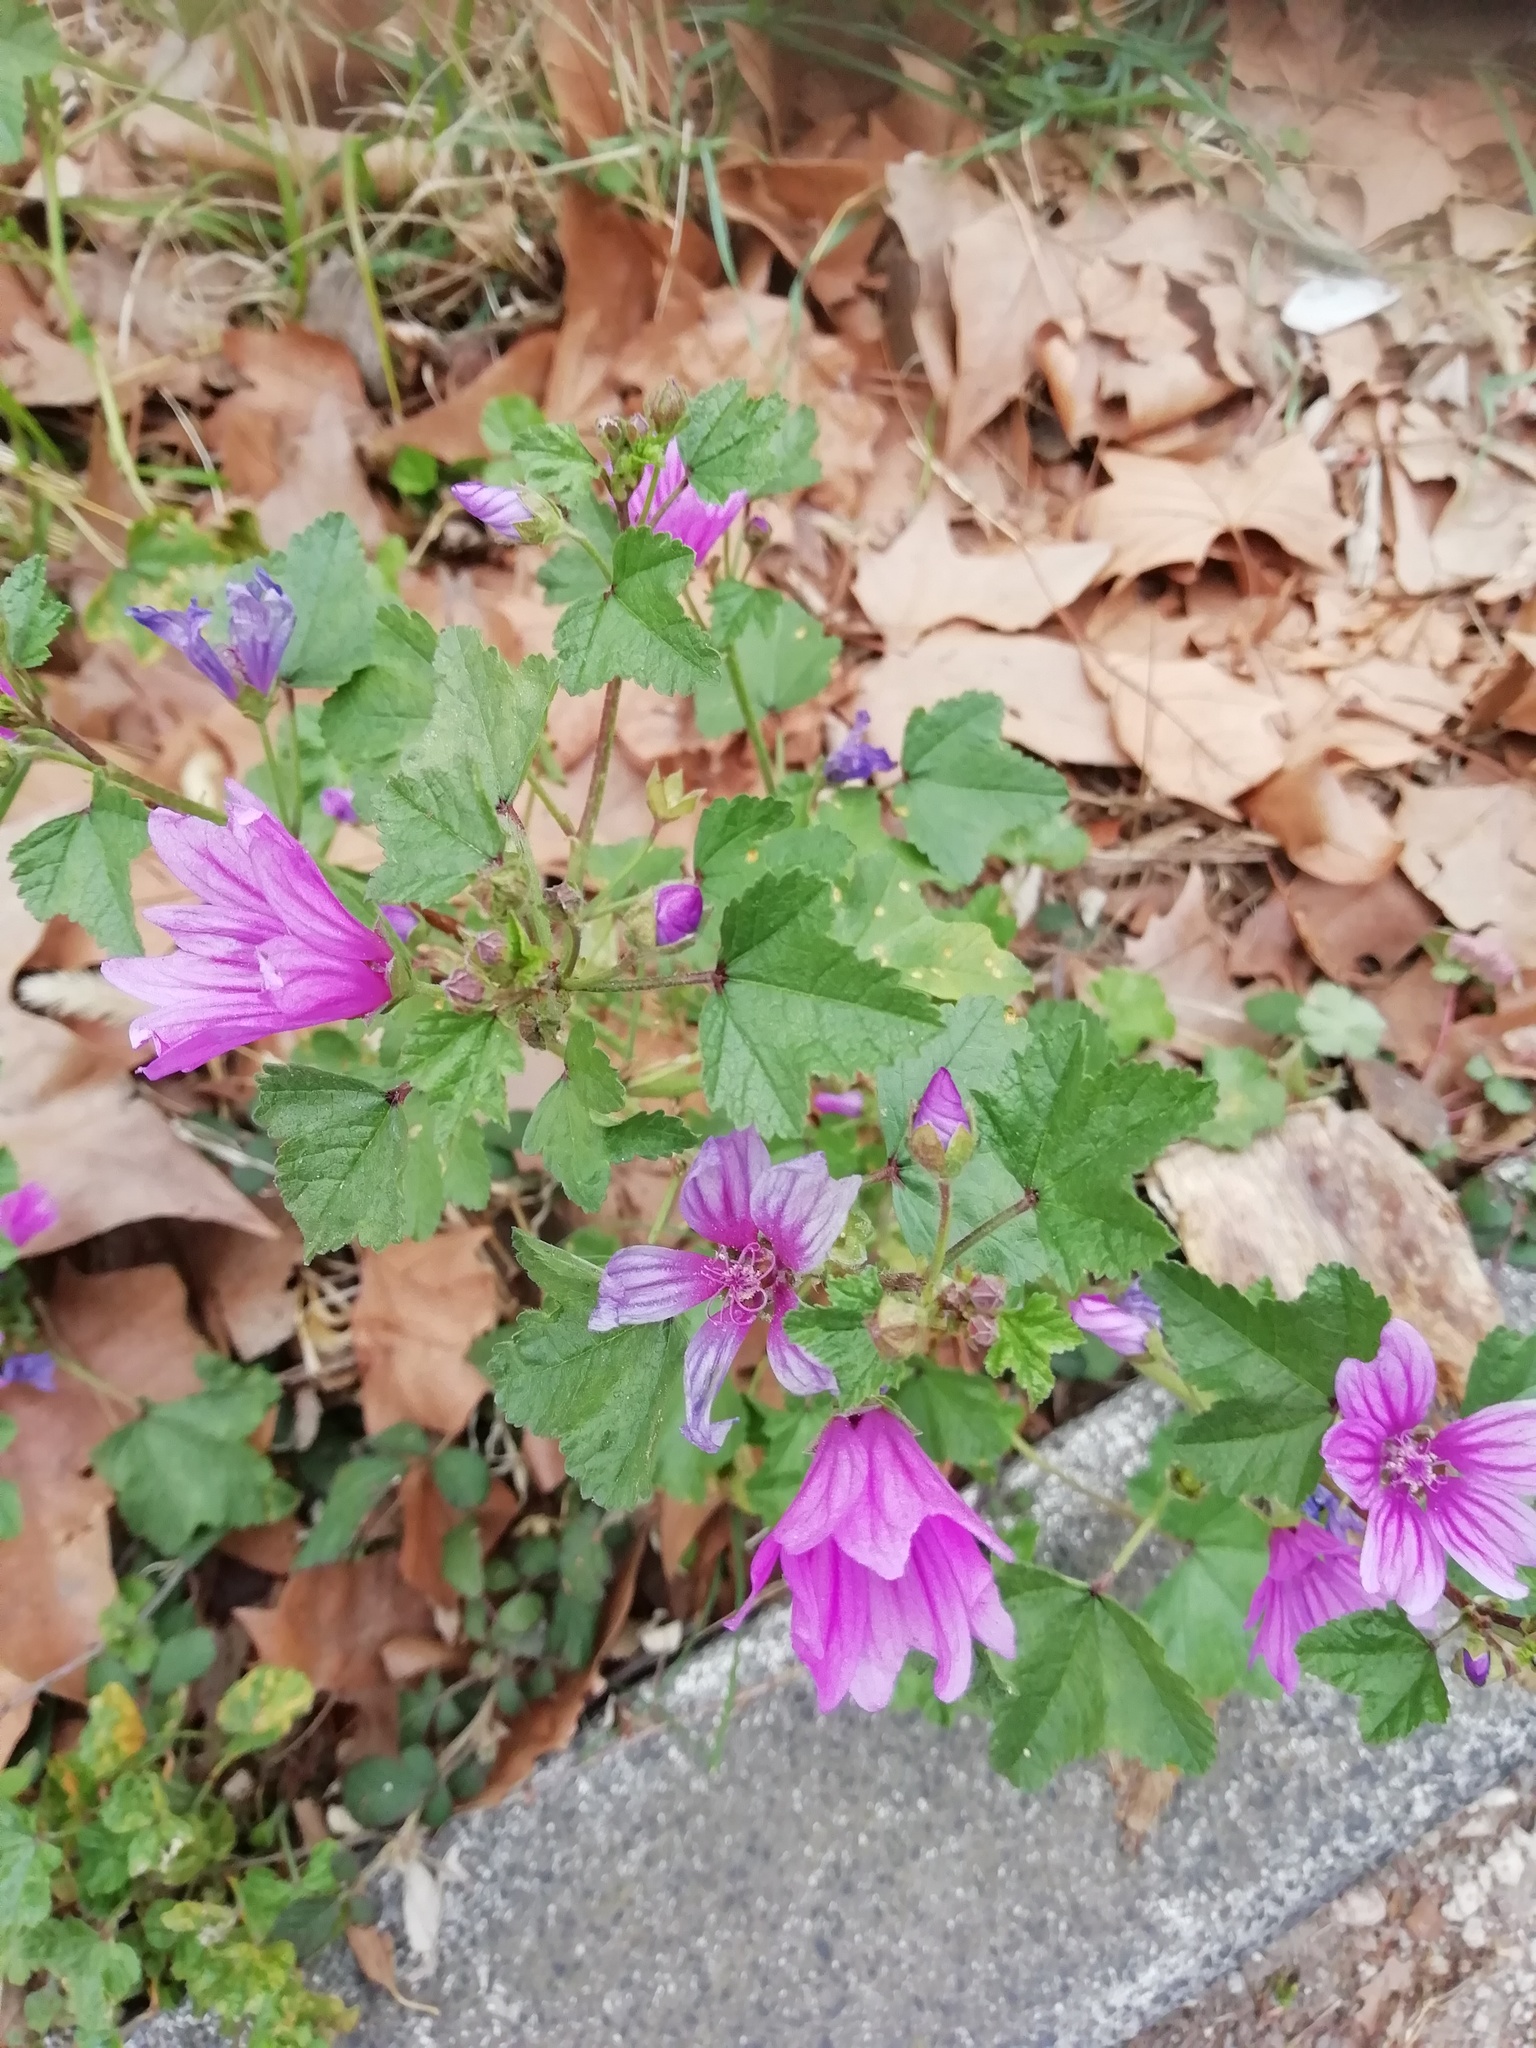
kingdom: Plantae
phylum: Tracheophyta
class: Magnoliopsida
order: Malvales
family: Malvaceae
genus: Malva
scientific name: Malva sylvestris
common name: Common mallow
